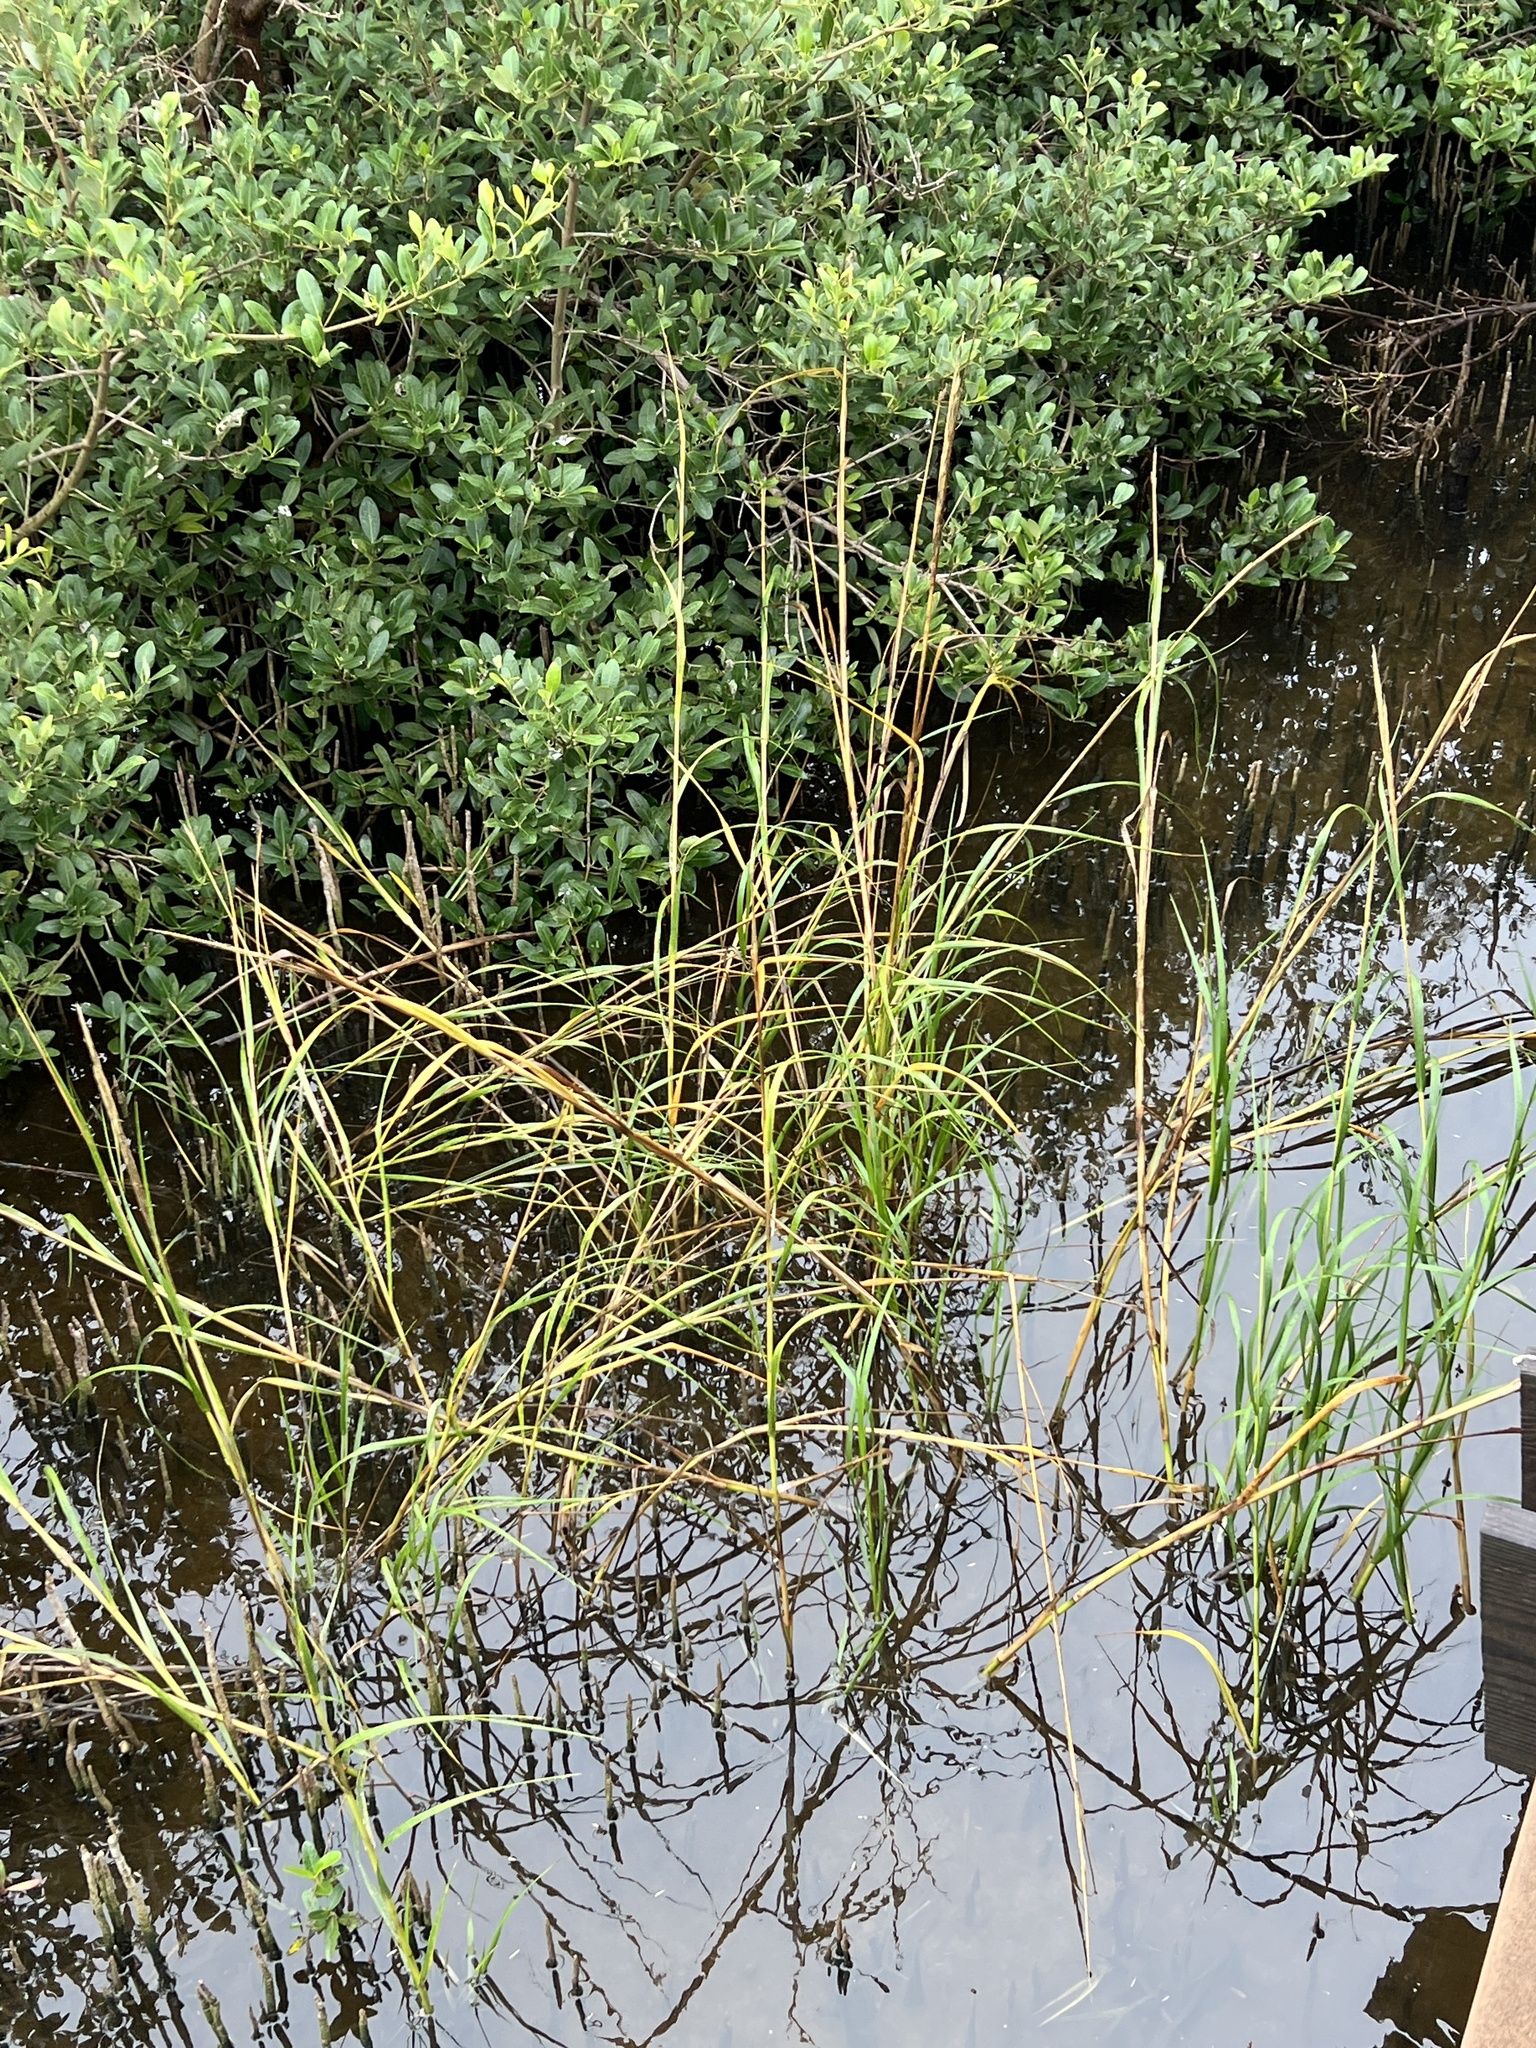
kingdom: Plantae
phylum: Tracheophyta
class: Liliopsida
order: Poales
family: Poaceae
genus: Sporobolus
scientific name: Sporobolus alterniflorus
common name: Atlantic cordgrass
